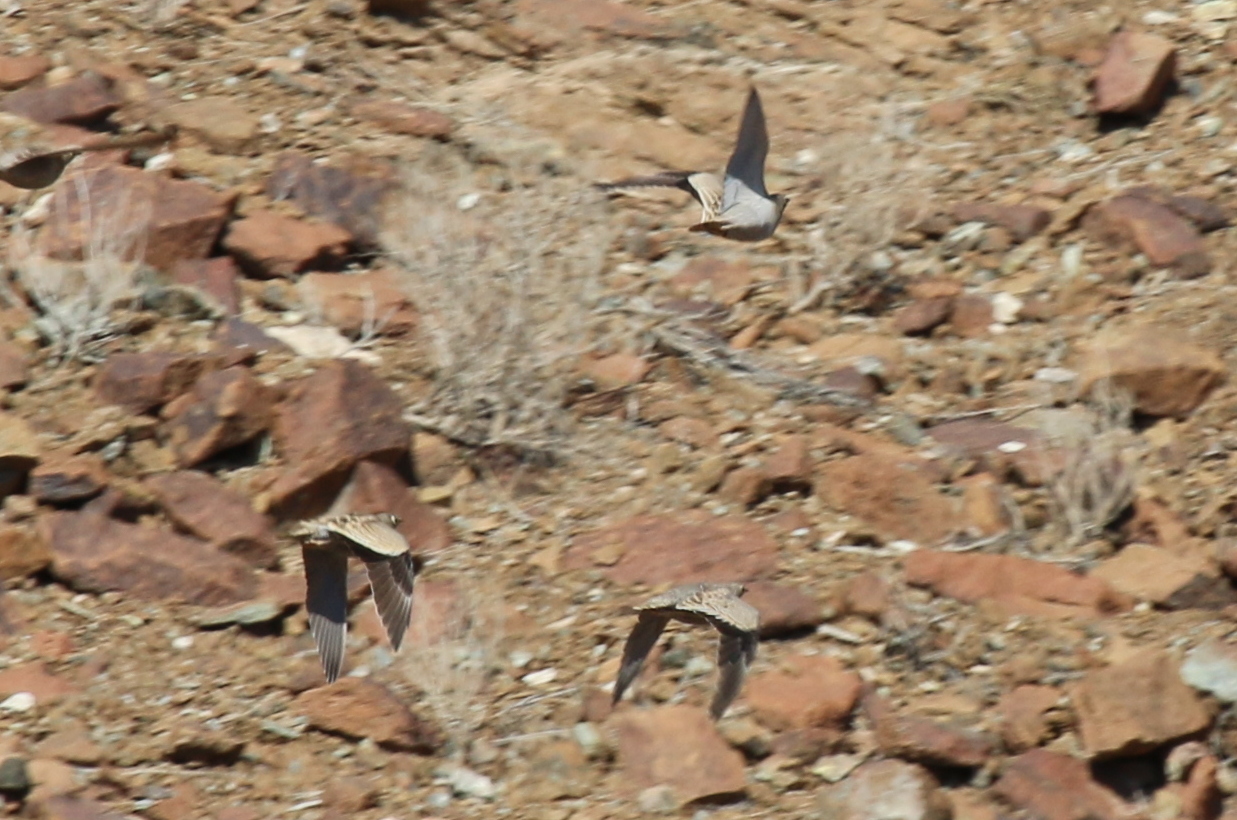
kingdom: Animalia
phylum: Chordata
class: Aves
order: Pteroclidiformes
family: Pteroclididae
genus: Pterocles
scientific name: Pterocles lichtensteinii
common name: Lichtenstein's sandgrouse
